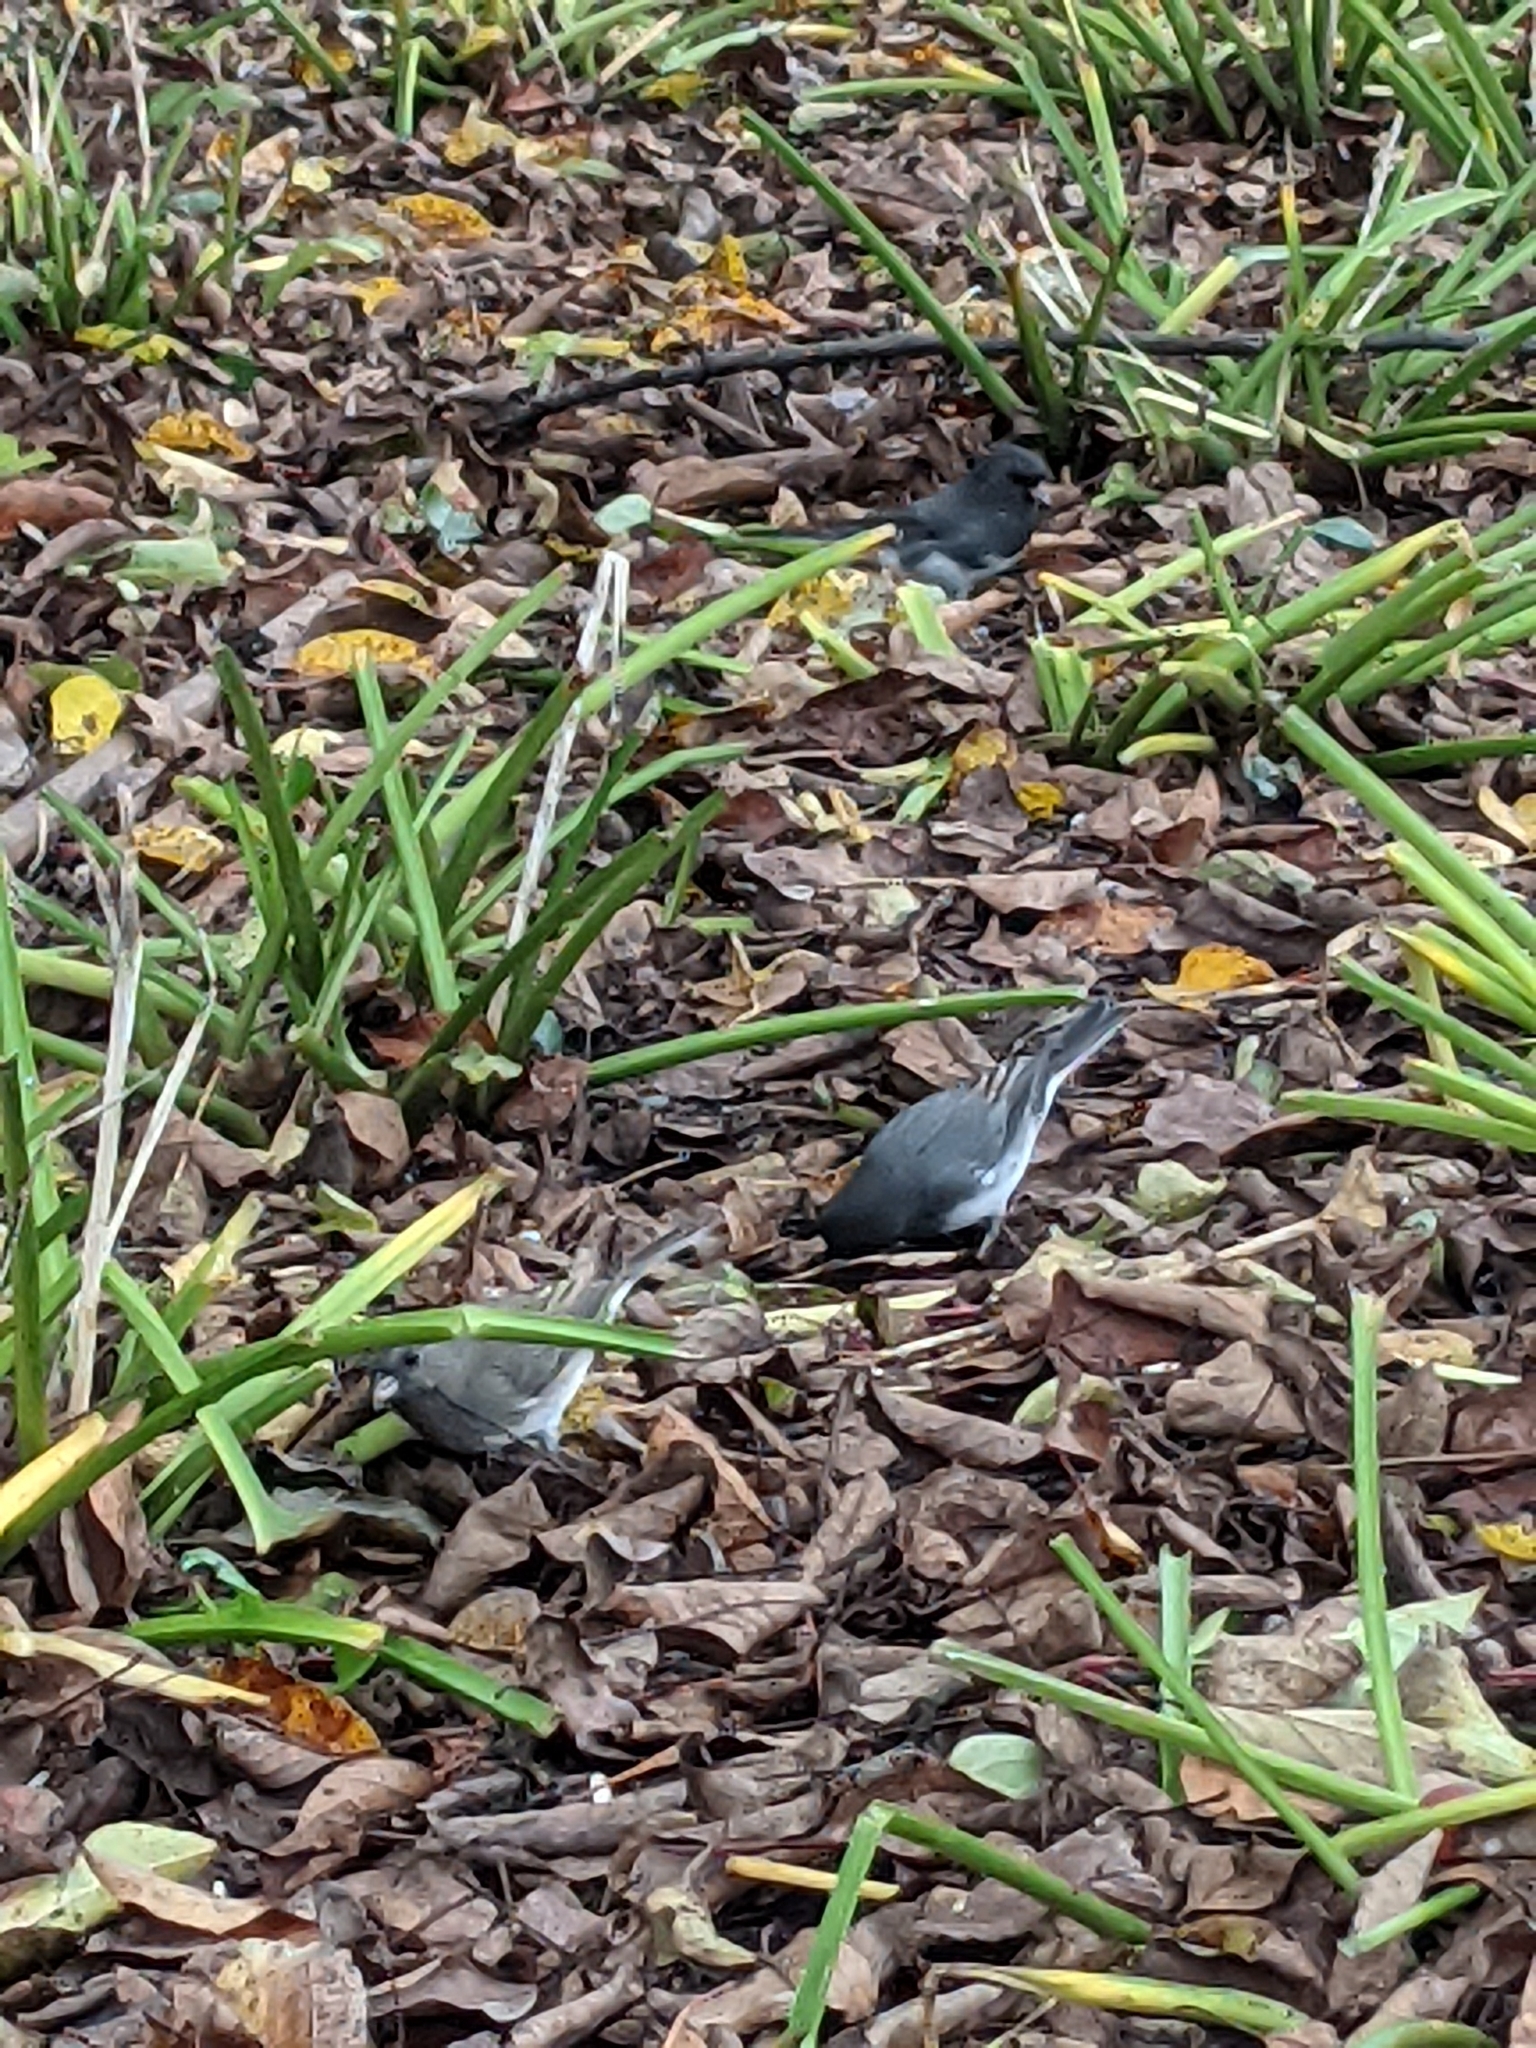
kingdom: Animalia
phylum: Chordata
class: Aves
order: Passeriformes
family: Passerellidae
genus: Junco
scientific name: Junco hyemalis
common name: Dark-eyed junco
